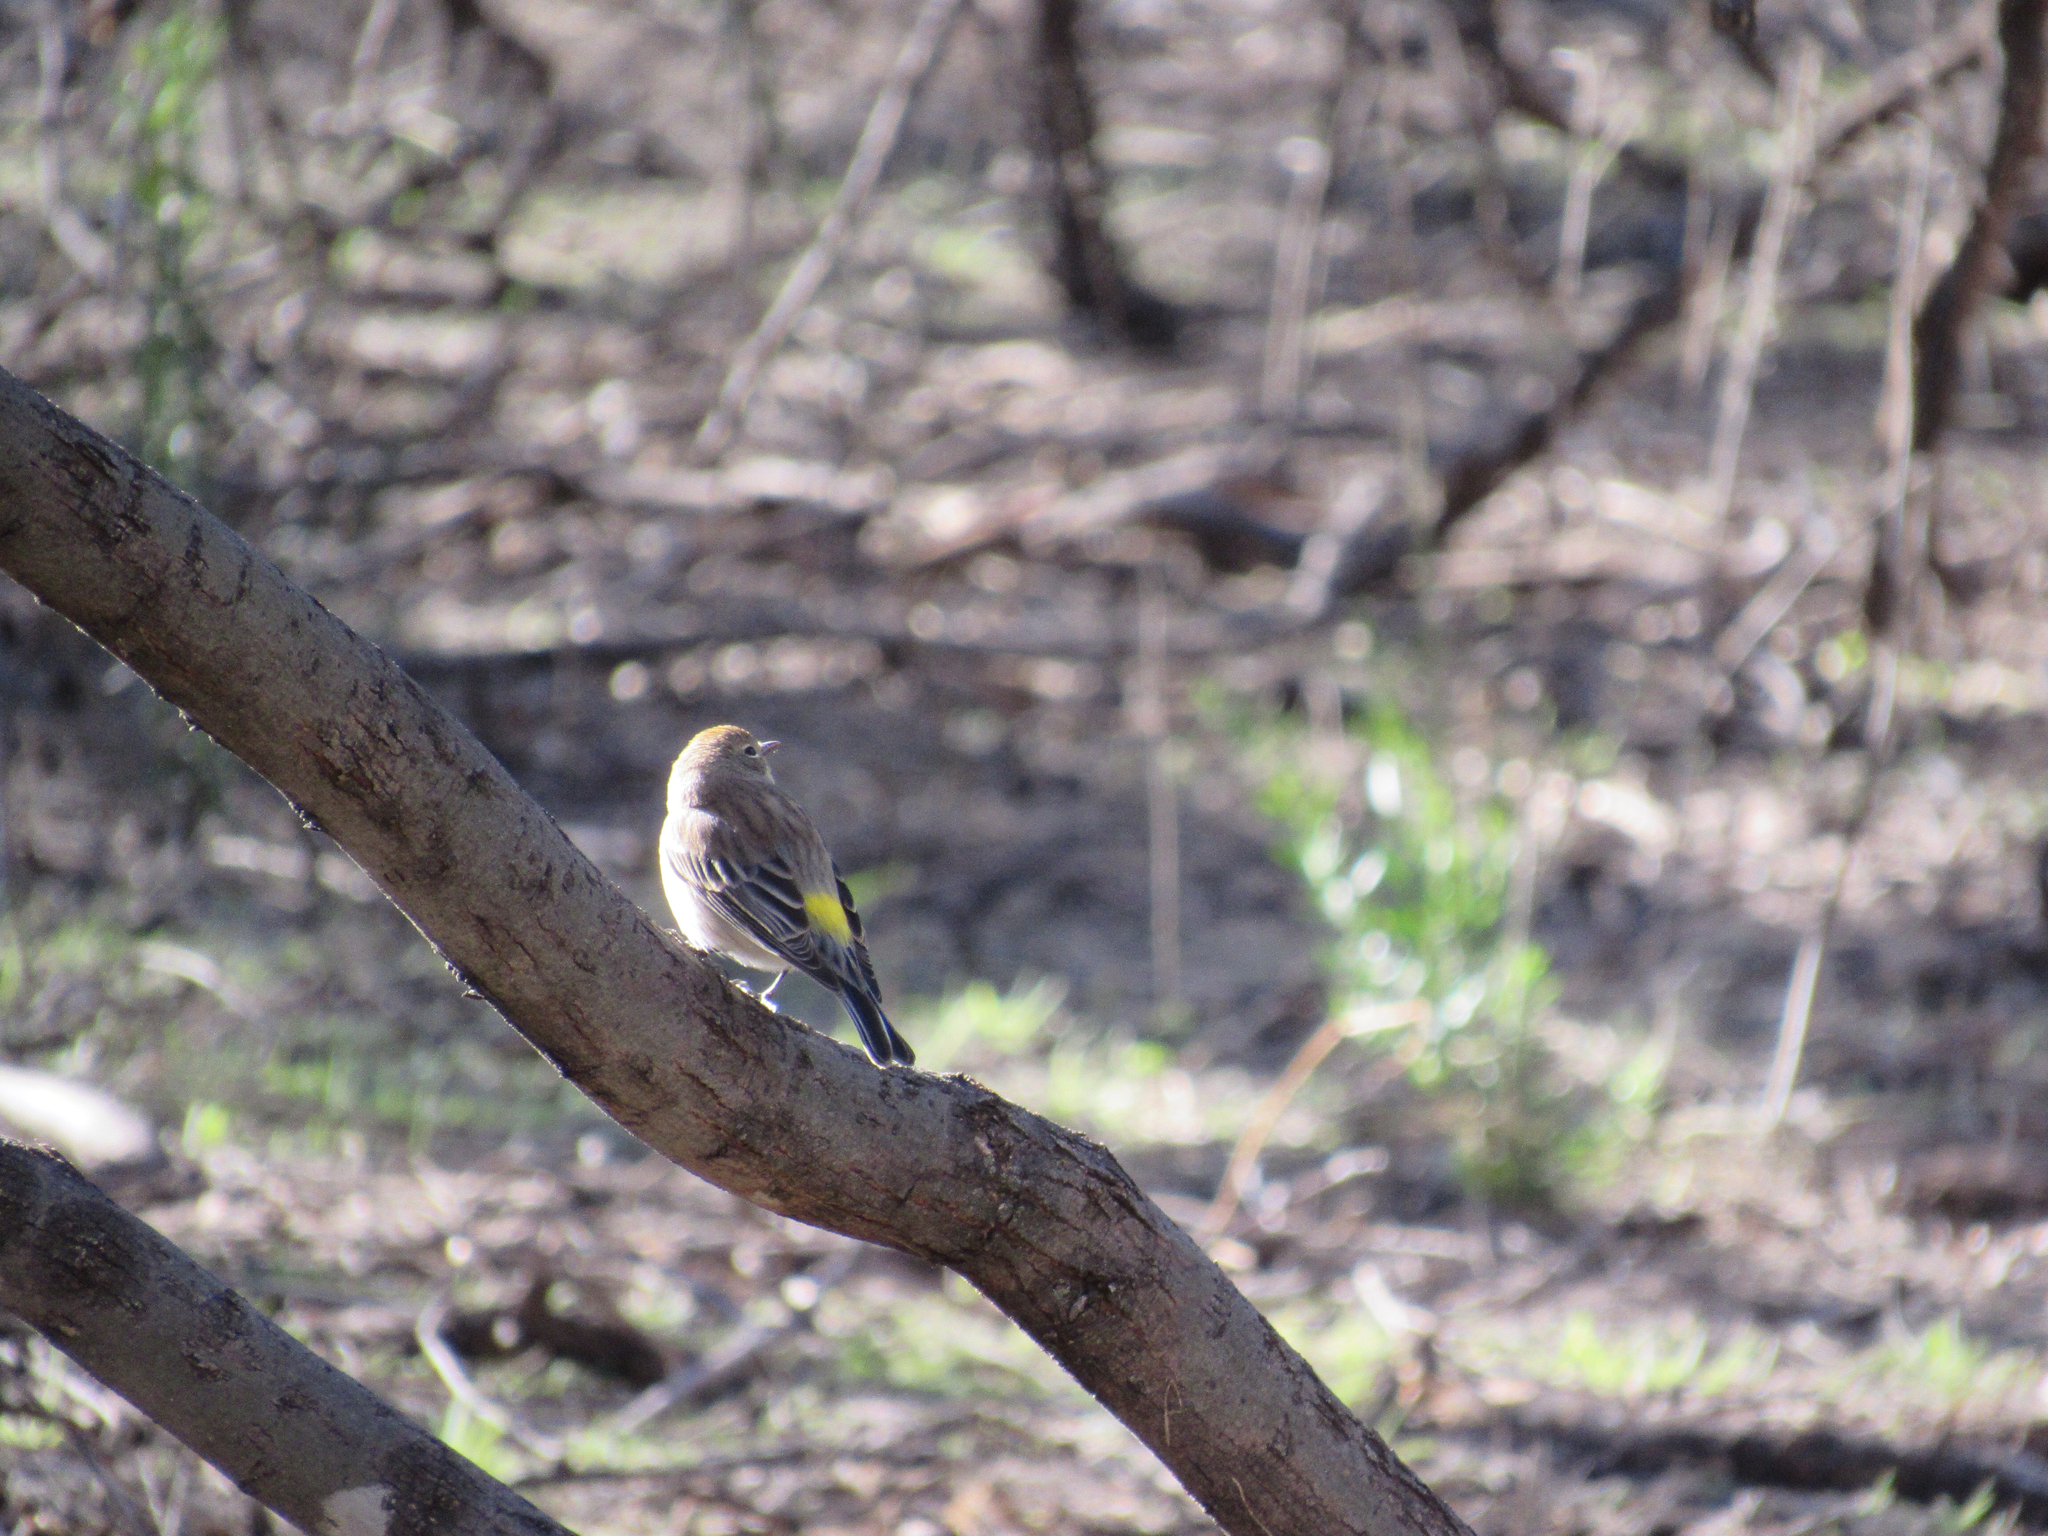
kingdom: Animalia
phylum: Chordata
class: Aves
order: Passeriformes
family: Parulidae
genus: Setophaga
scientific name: Setophaga coronata
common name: Myrtle warbler
